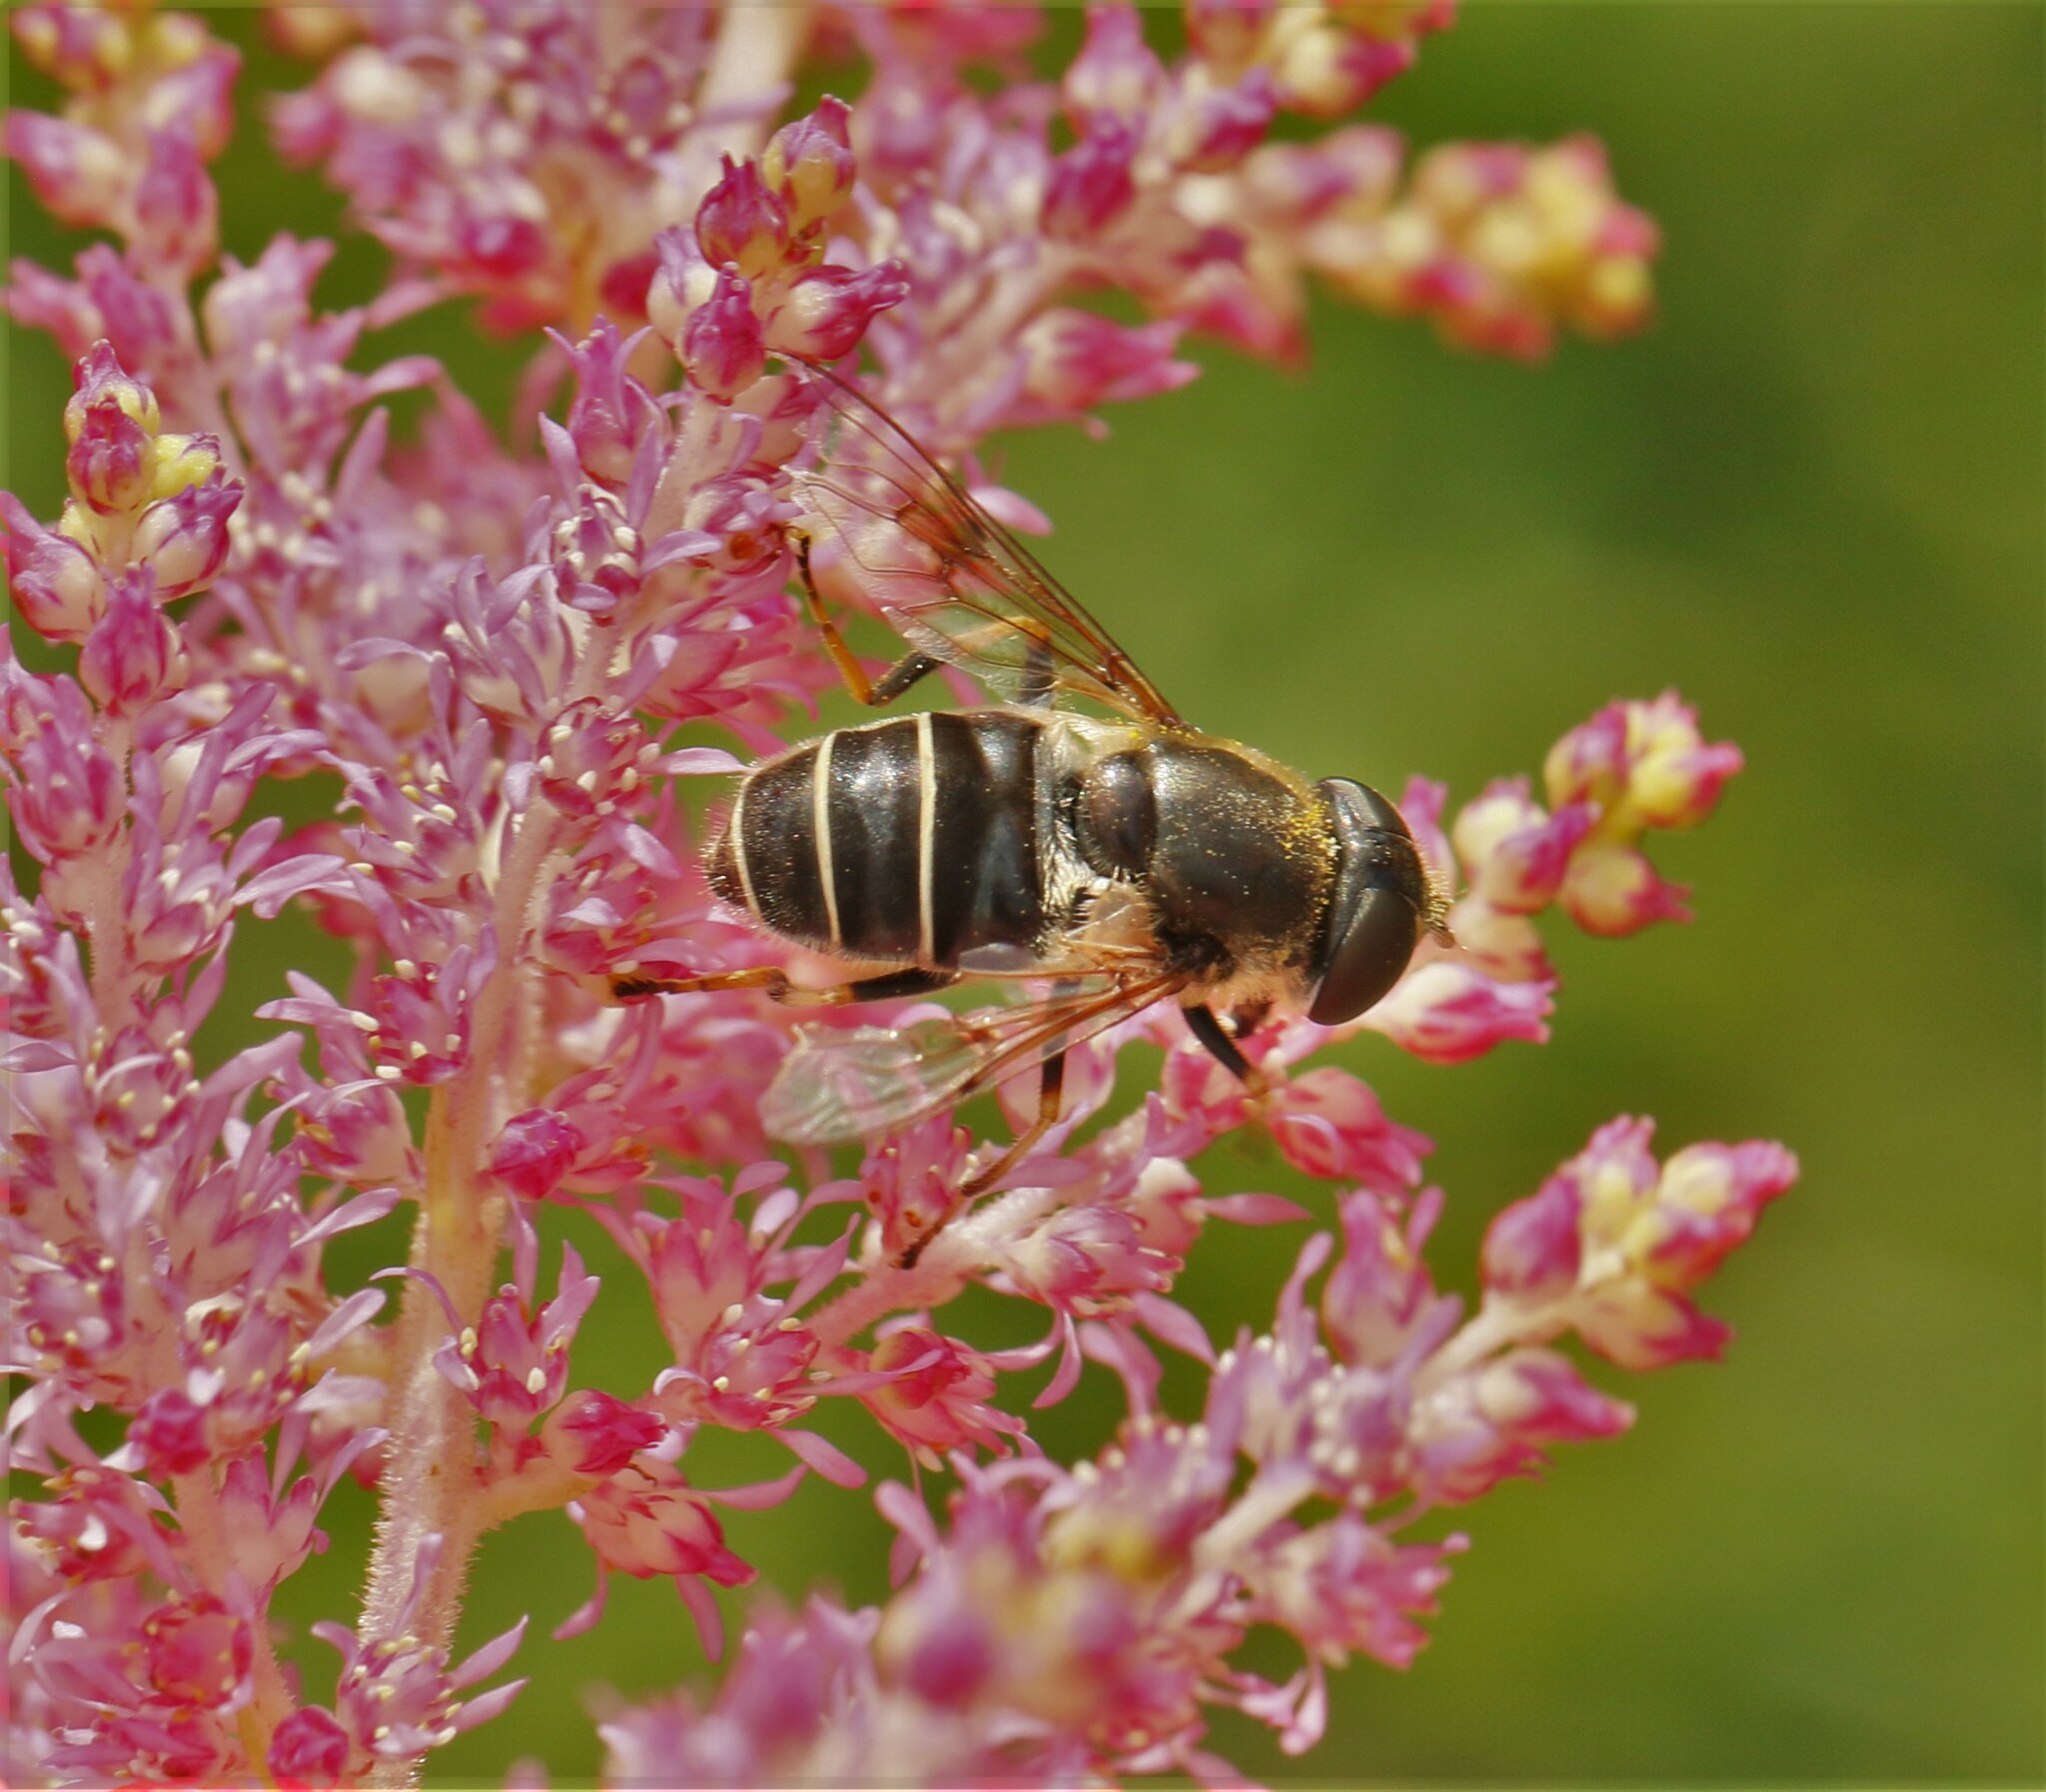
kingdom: Animalia
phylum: Arthropoda
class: Insecta
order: Diptera
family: Syrphidae
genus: Eristalis
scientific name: Eristalis obscura
